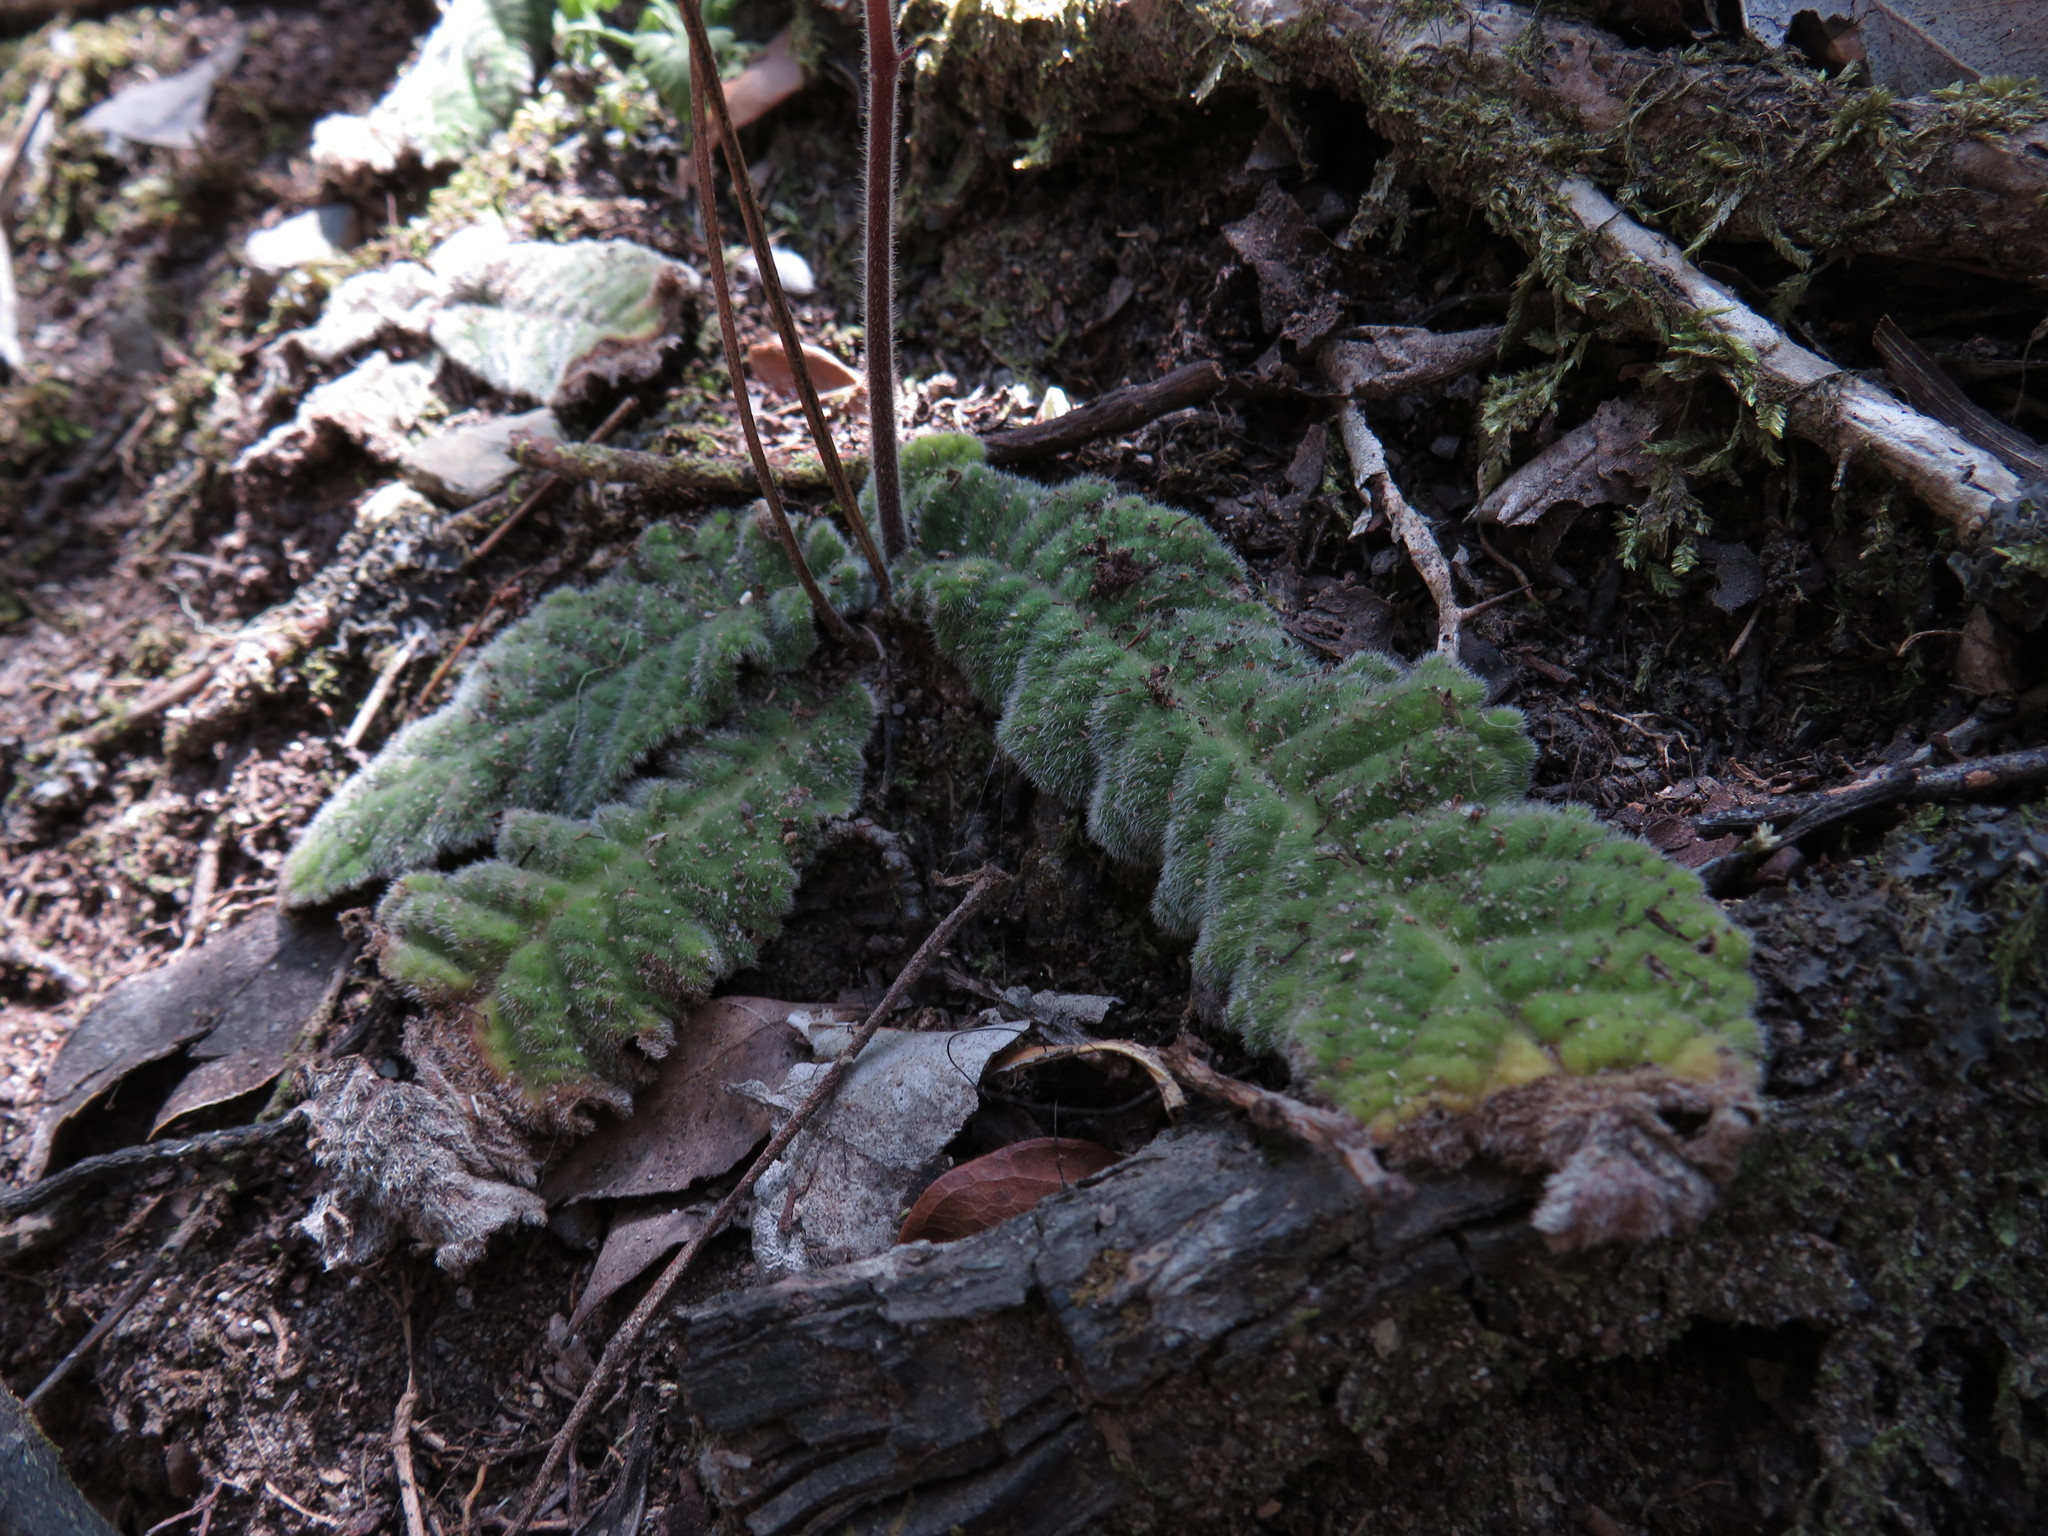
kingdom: Plantae
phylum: Tracheophyta
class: Magnoliopsida
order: Lamiales
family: Gesneriaceae
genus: Streptocarpus
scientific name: Streptocarpus rexii
